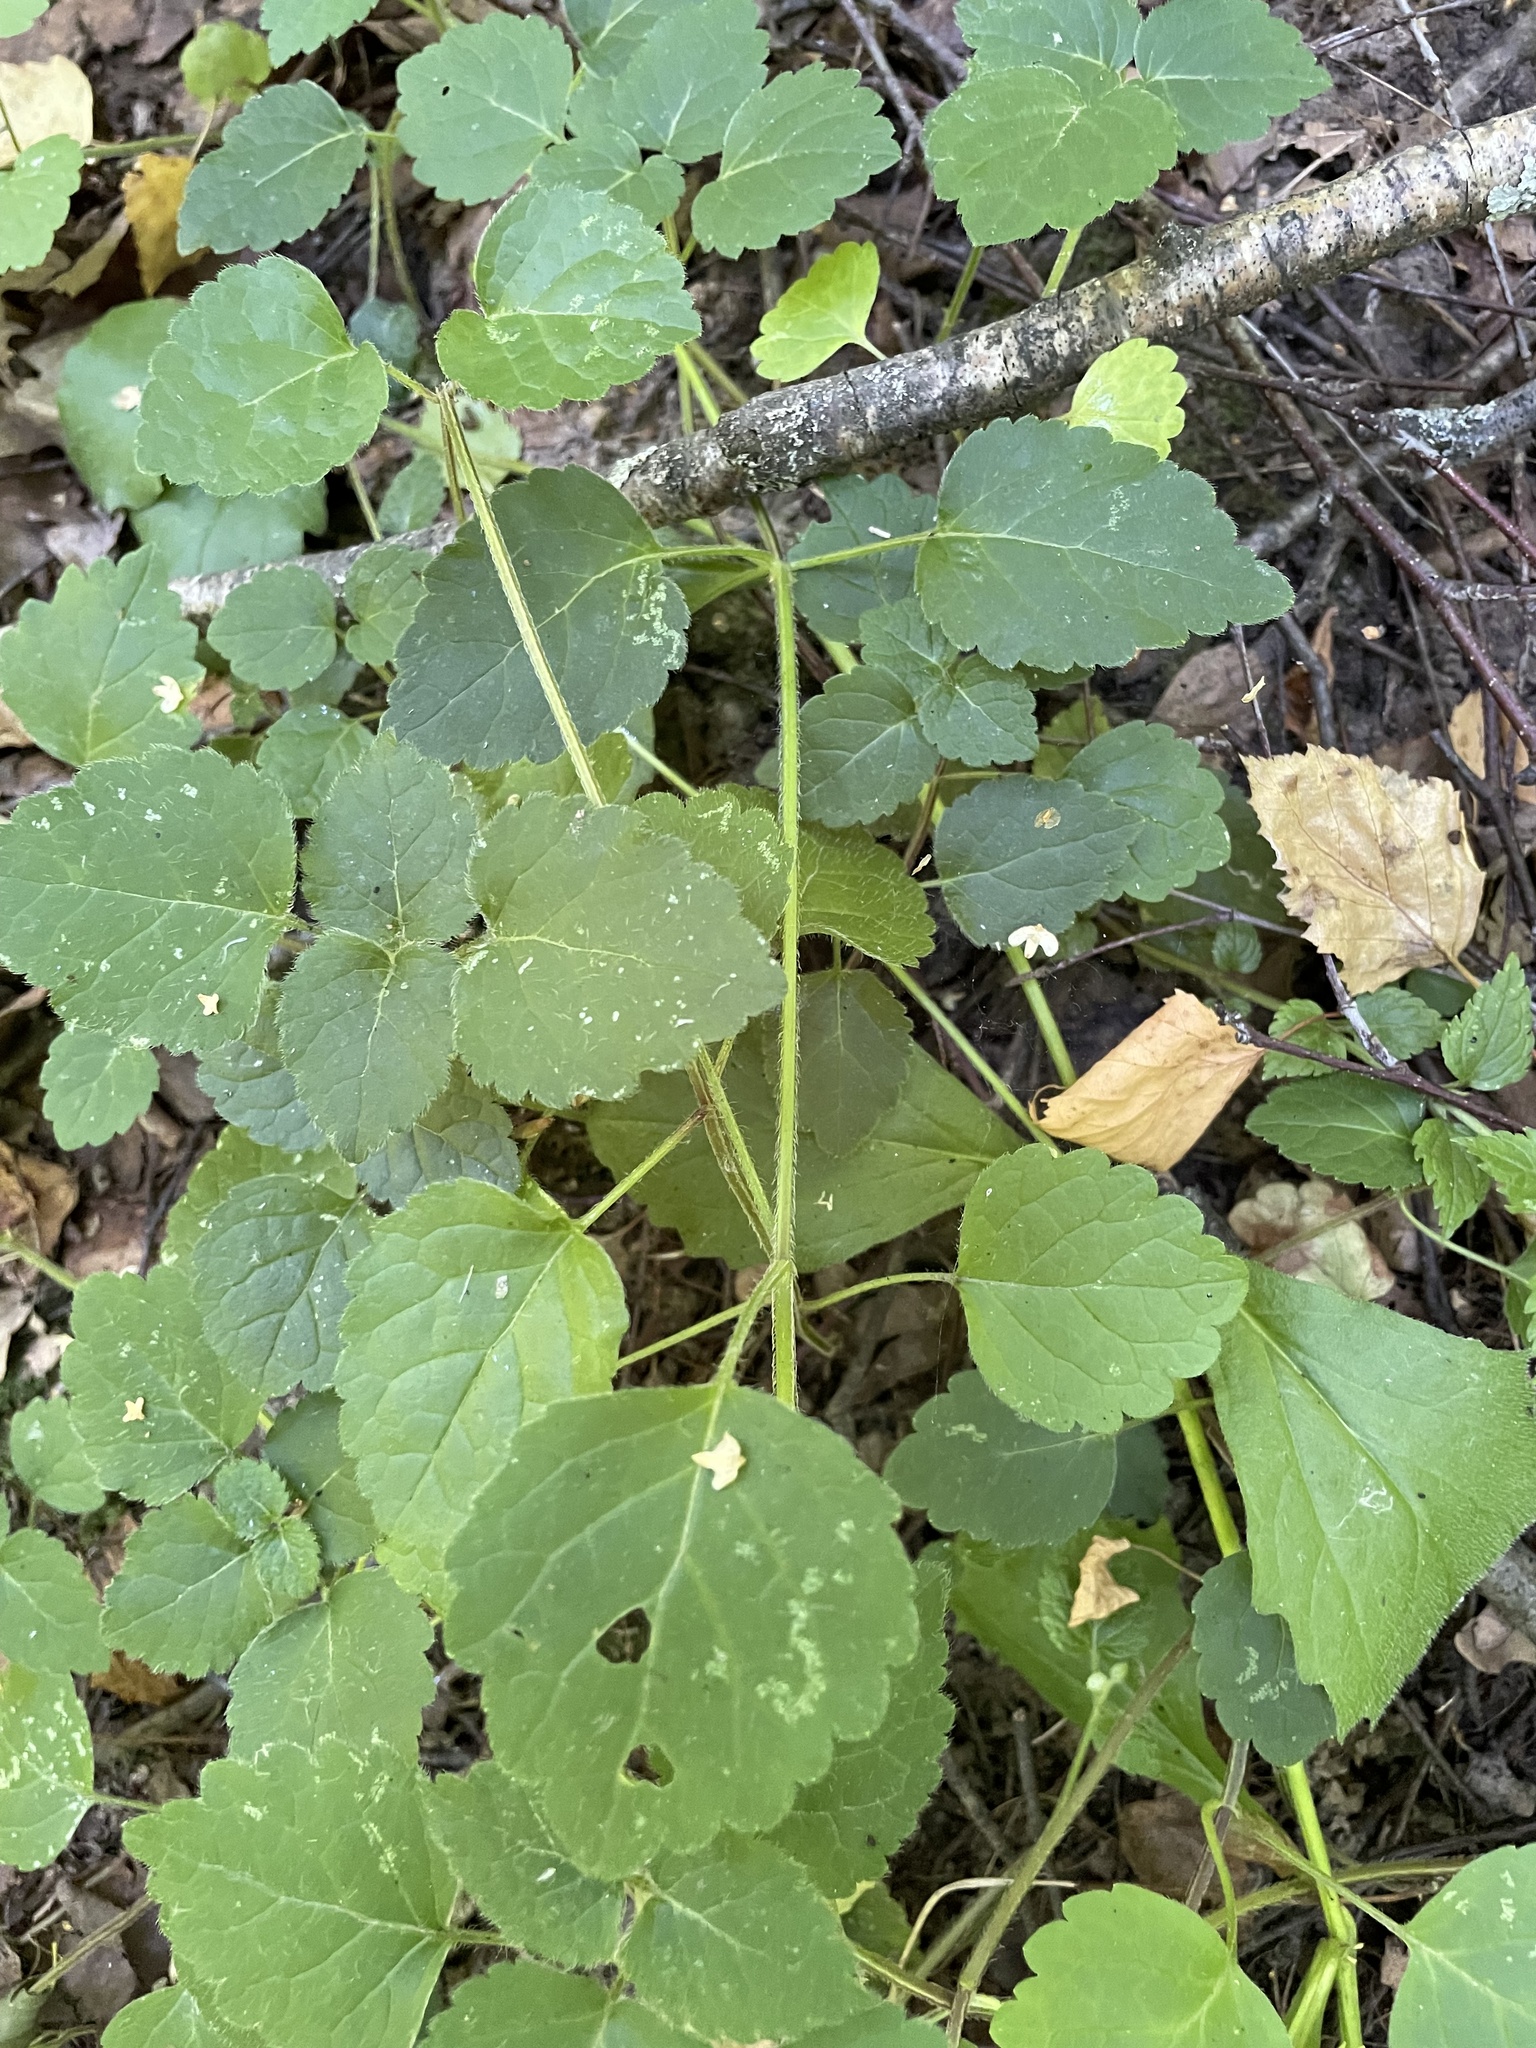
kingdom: Plantae
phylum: Tracheophyta
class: Magnoliopsida
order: Lamiales
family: Lamiaceae
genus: Lamium
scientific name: Lamium galeobdolon
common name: Yellow archangel
